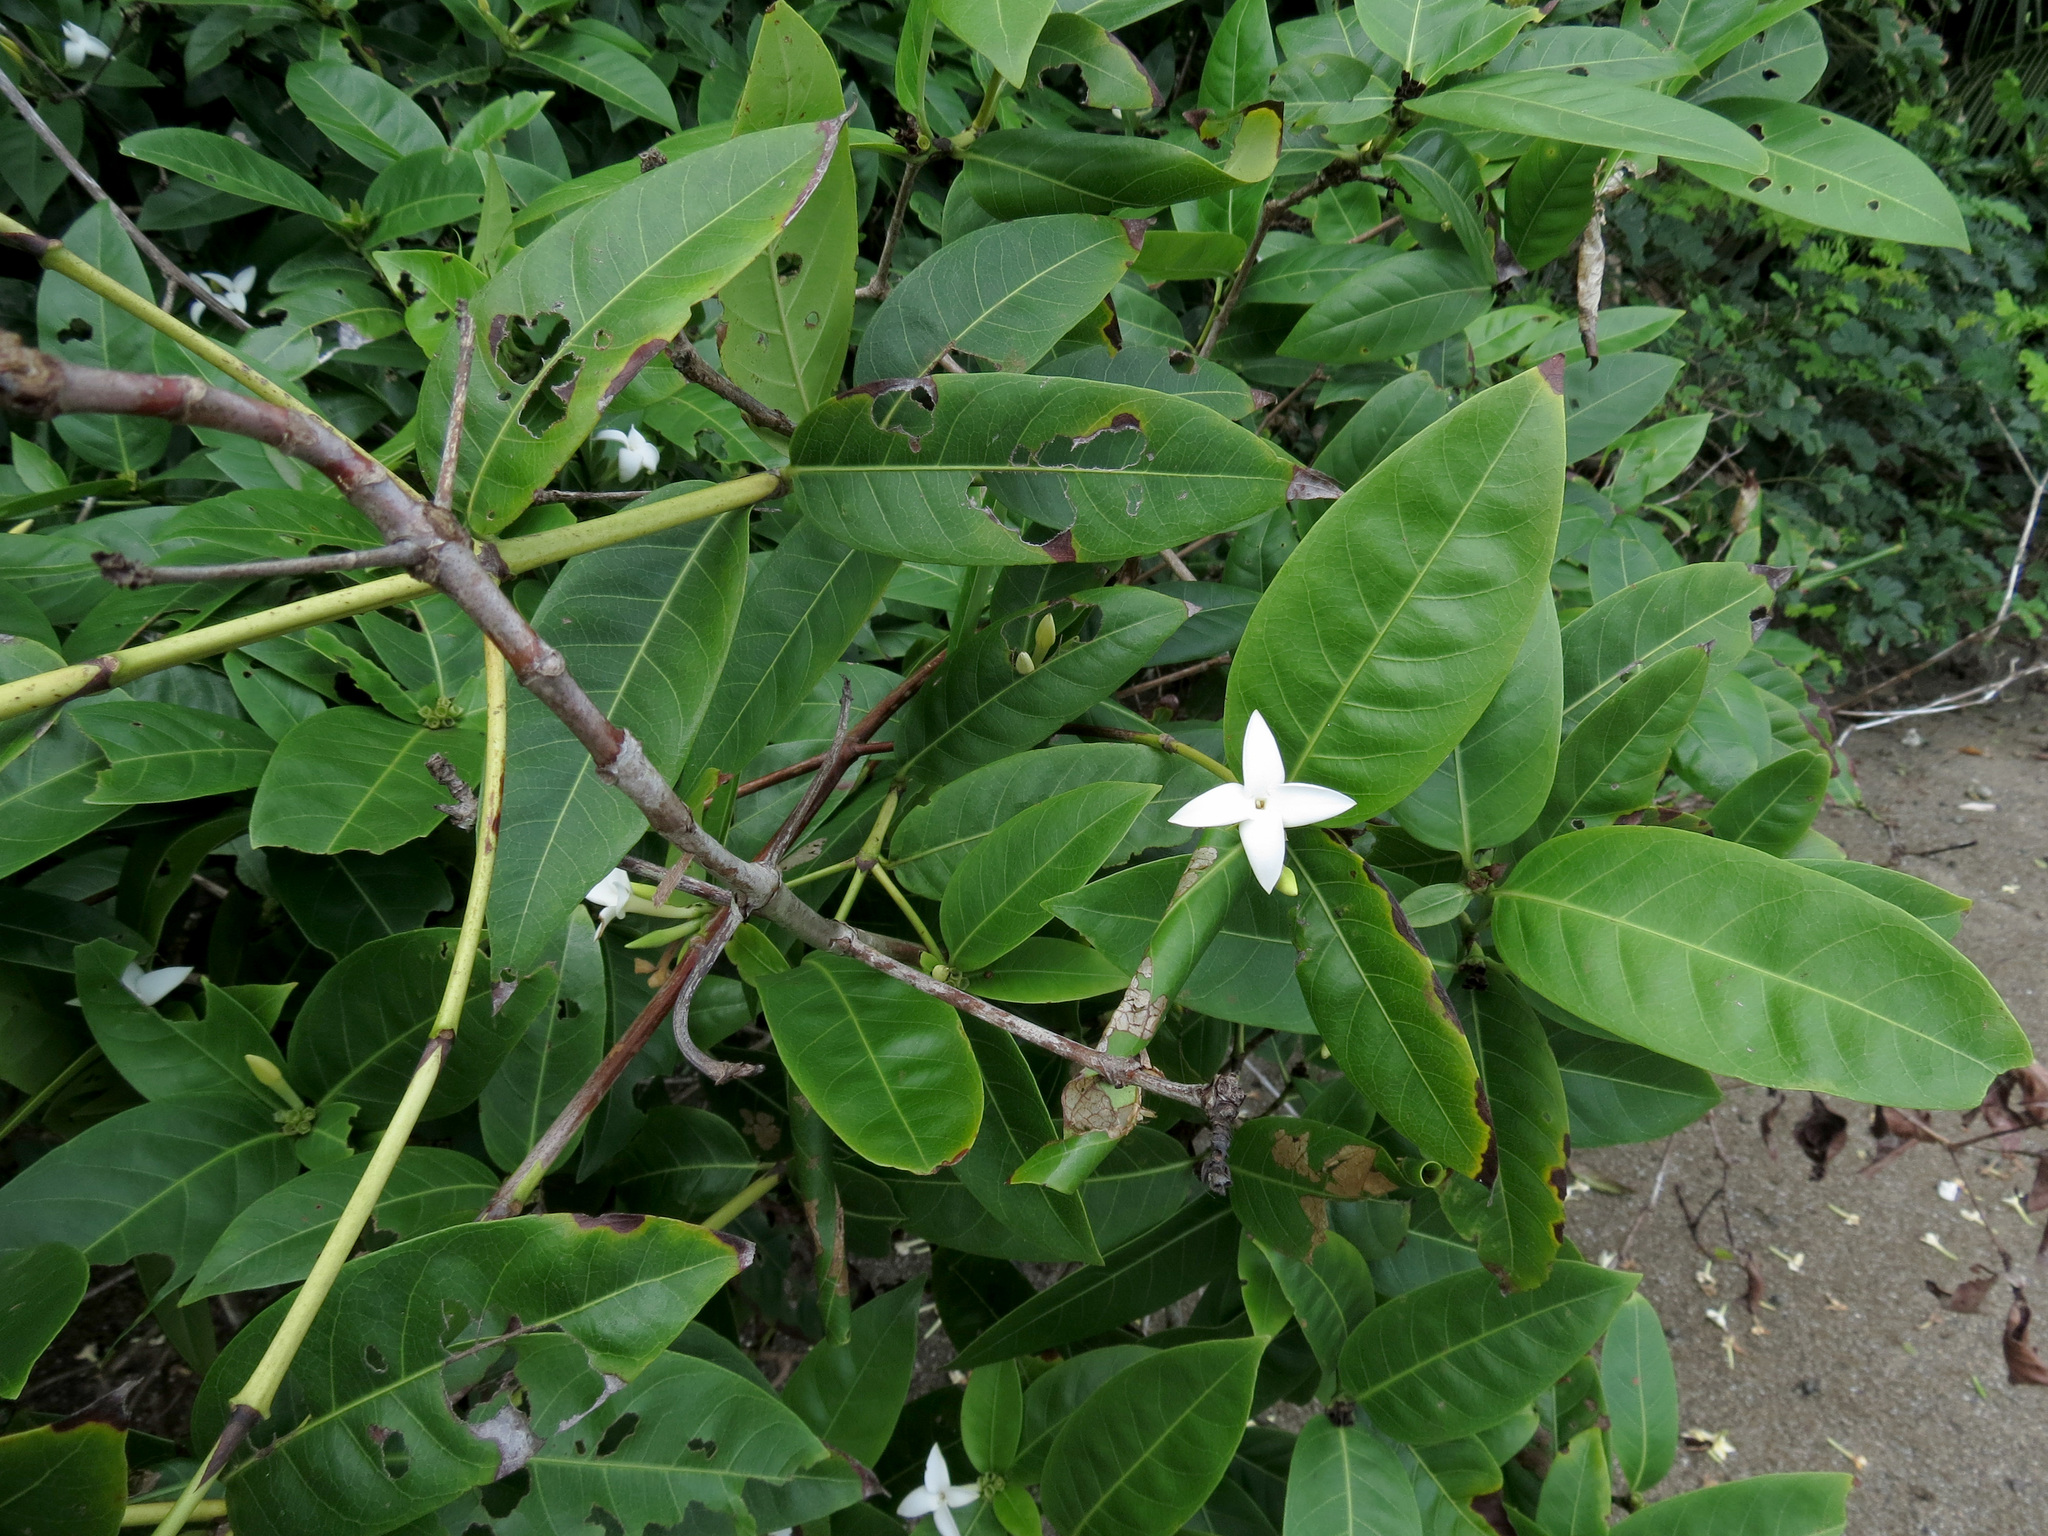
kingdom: Plantae
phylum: Tracheophyta
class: Magnoliopsida
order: Gentianales
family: Rubiaceae
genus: Alibertia
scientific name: Alibertia edulis
